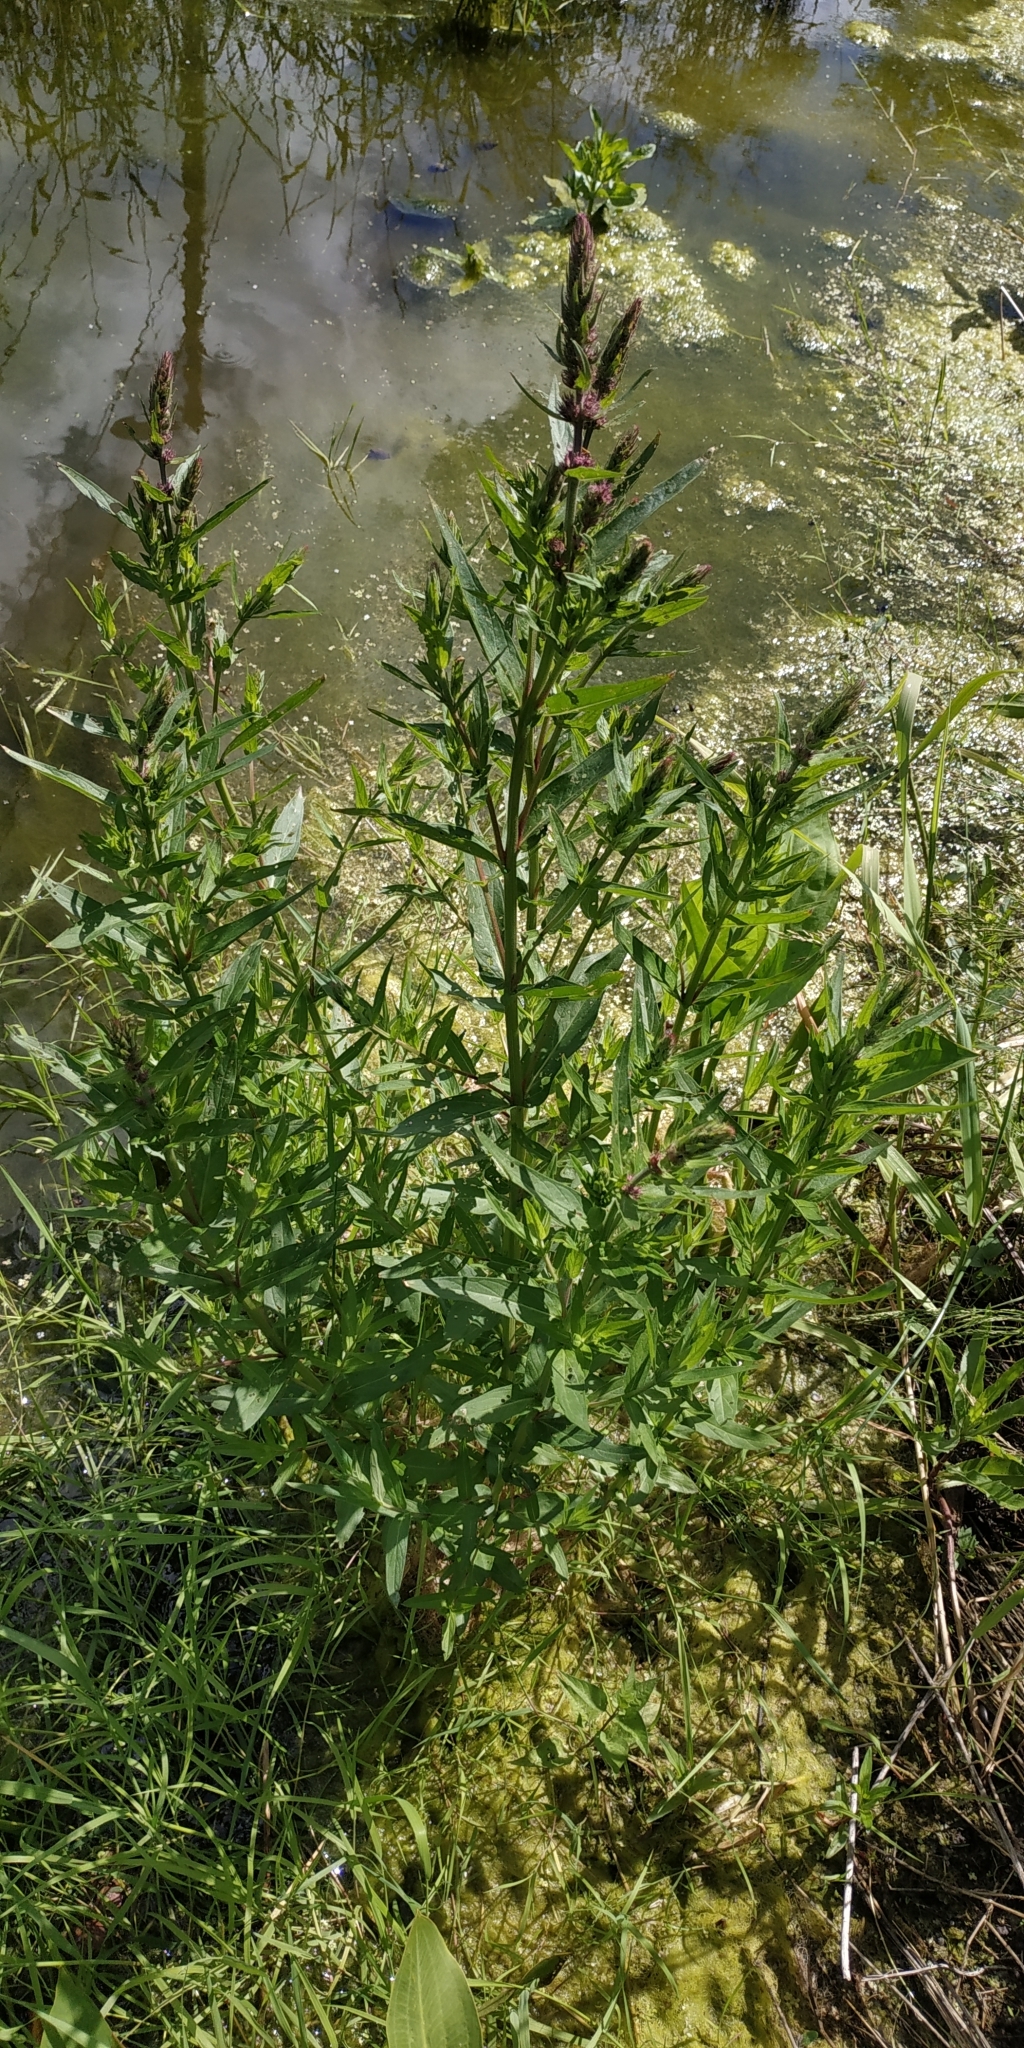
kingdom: Plantae
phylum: Tracheophyta
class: Magnoliopsida
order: Myrtales
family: Lythraceae
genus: Lythrum
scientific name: Lythrum salicaria
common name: Purple loosestrife
